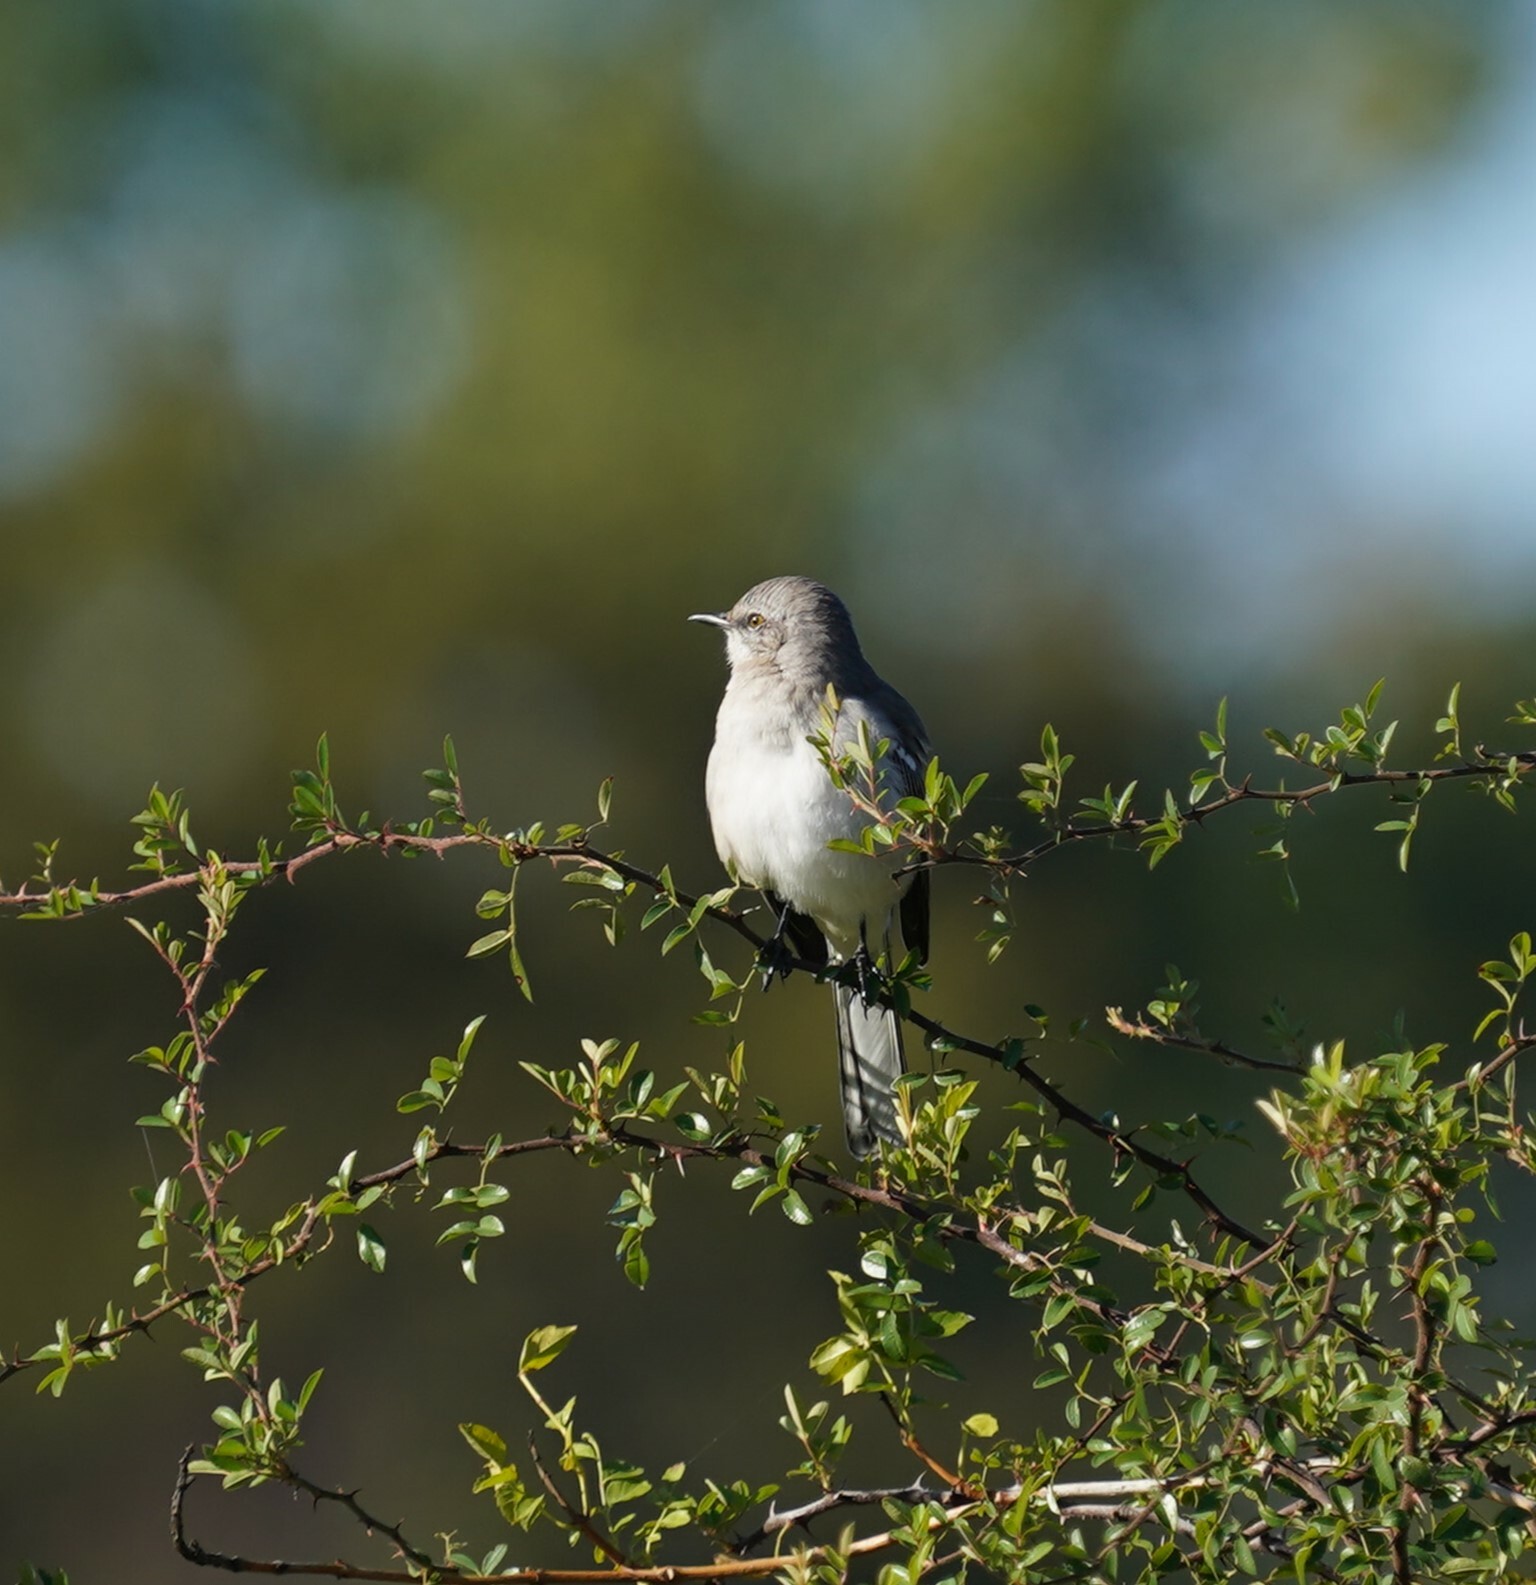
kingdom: Animalia
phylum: Chordata
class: Aves
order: Passeriformes
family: Mimidae
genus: Mimus
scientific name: Mimus polyglottos
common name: Northern mockingbird
